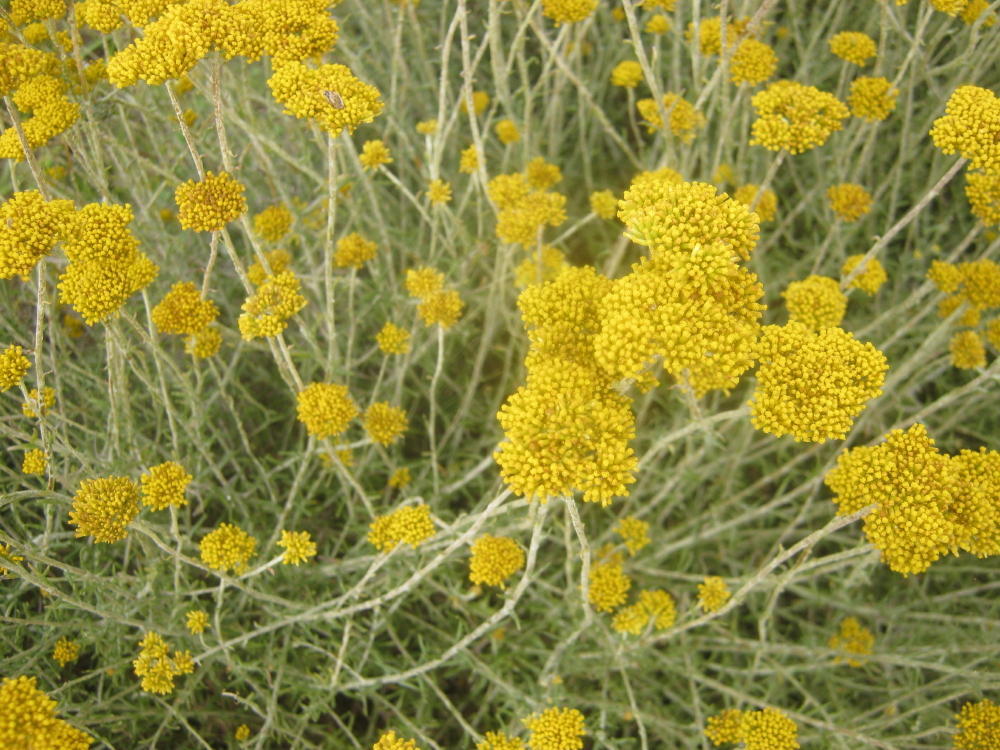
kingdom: Plantae
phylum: Tracheophyta
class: Magnoliopsida
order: Asterales
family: Asteraceae
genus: Helichrysum
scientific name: Helichrysum cymosum
